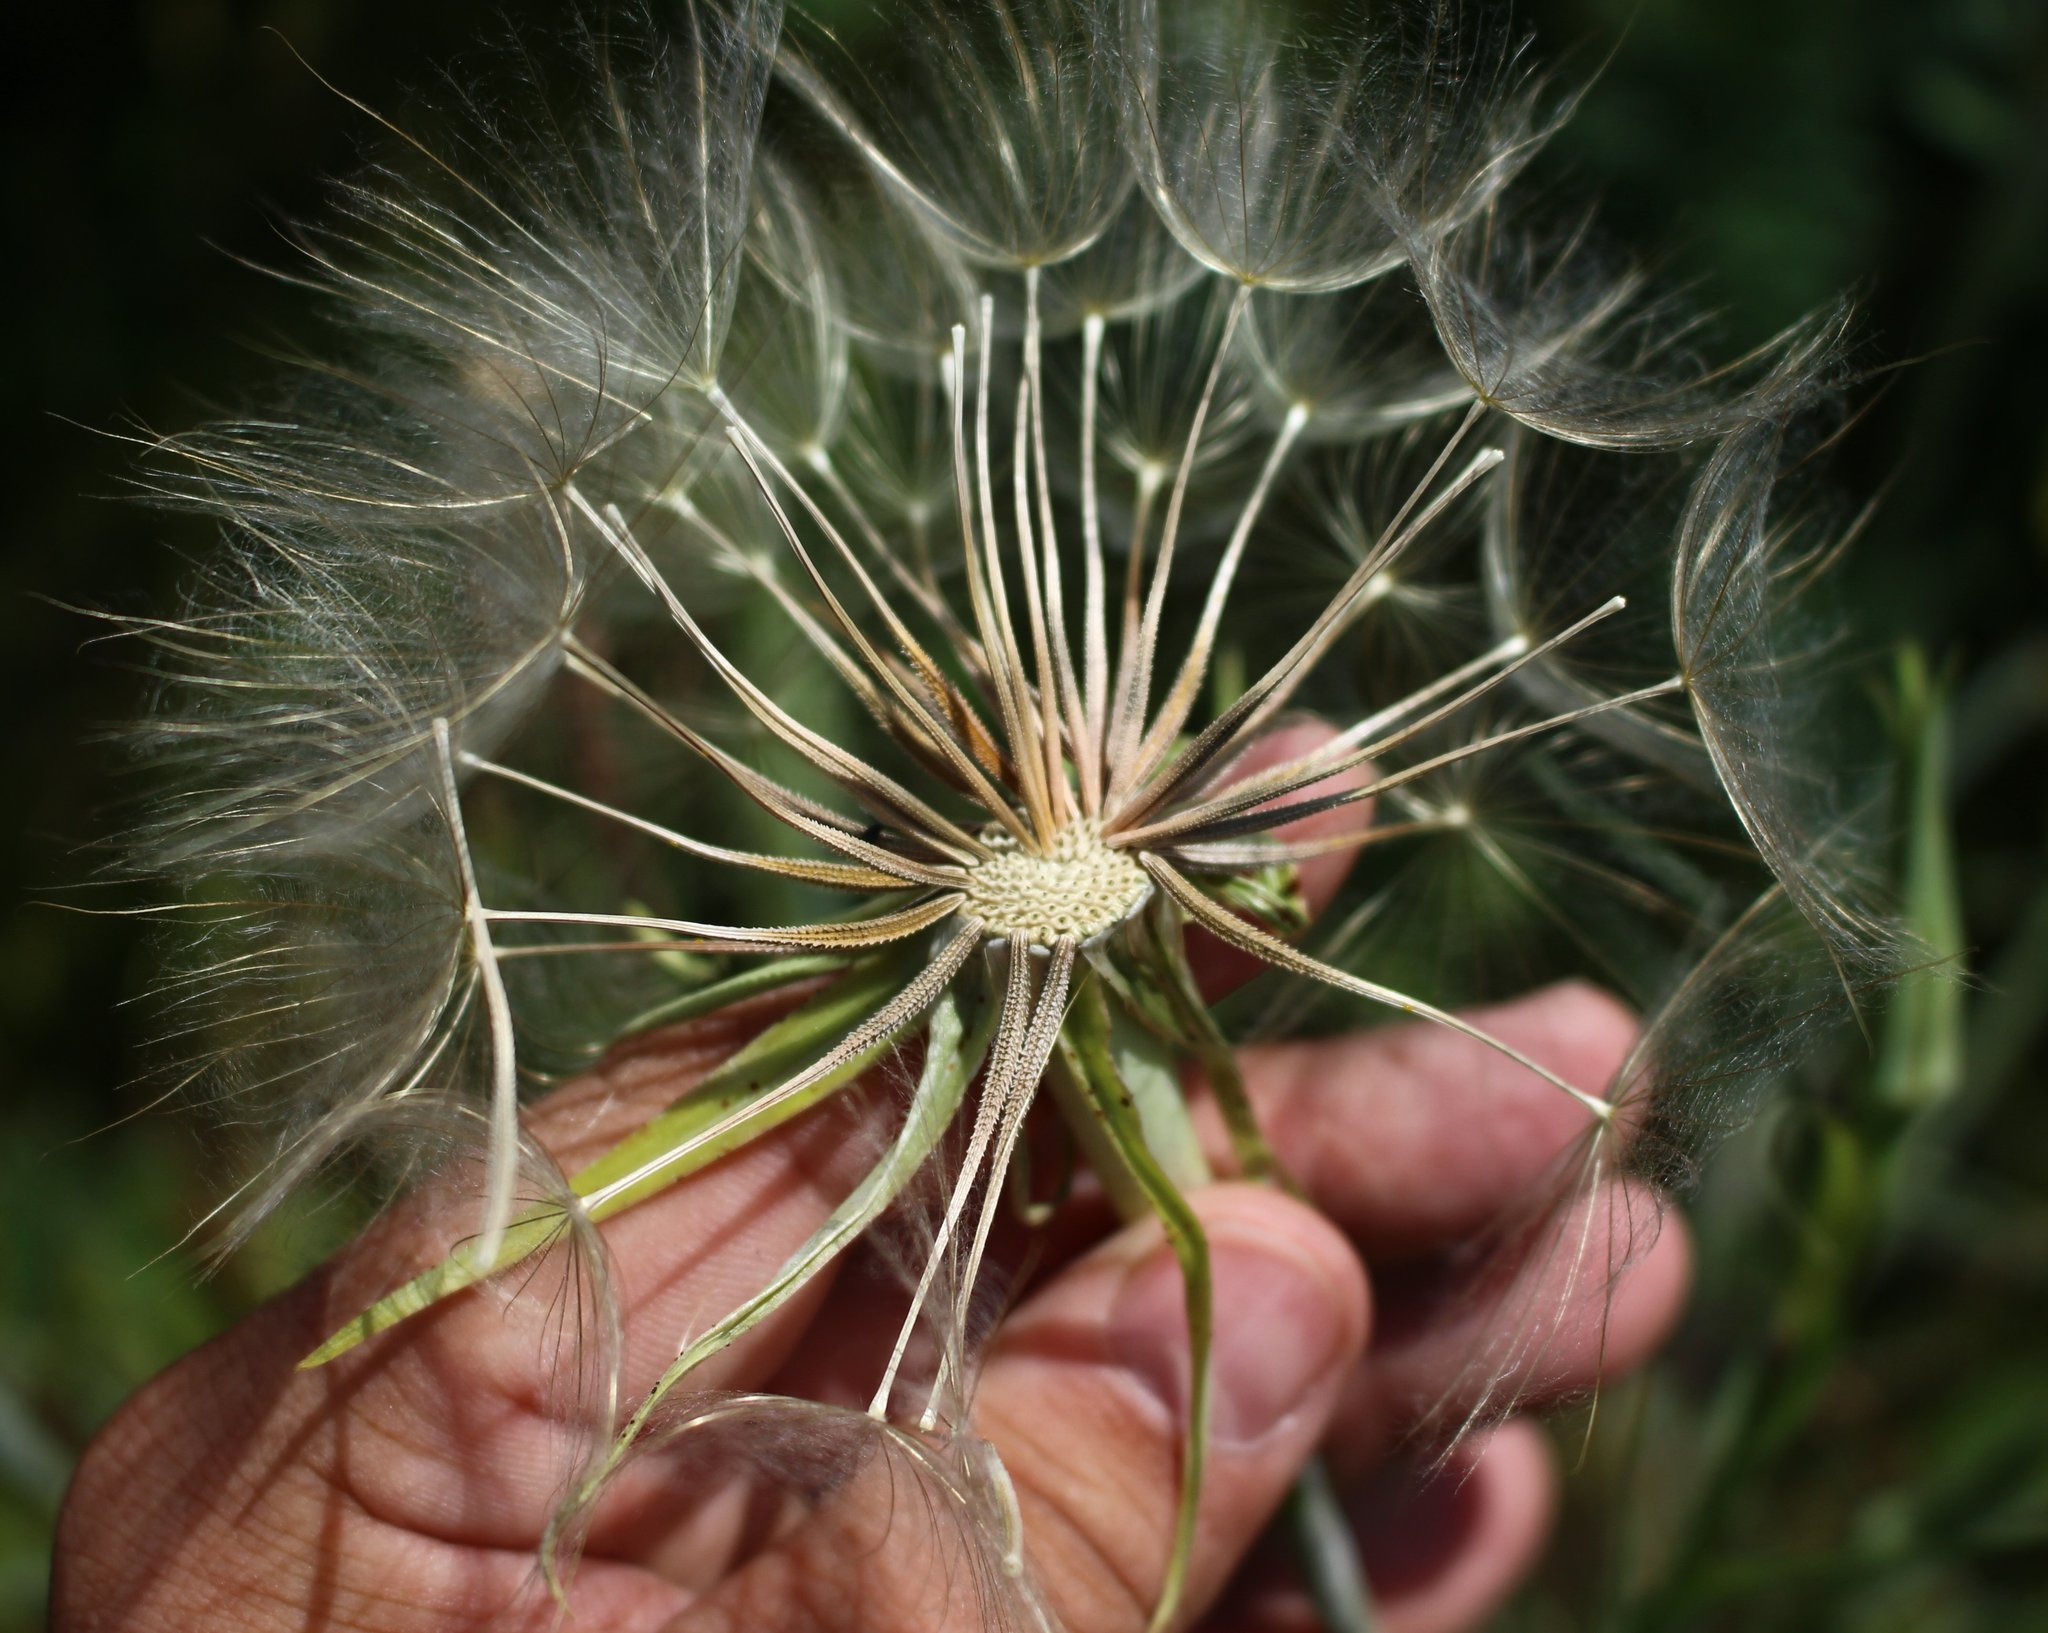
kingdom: Plantae
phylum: Tracheophyta
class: Magnoliopsida
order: Asterales
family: Asteraceae
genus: Tragopogon
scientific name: Tragopogon dubius
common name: Yellow salsify
